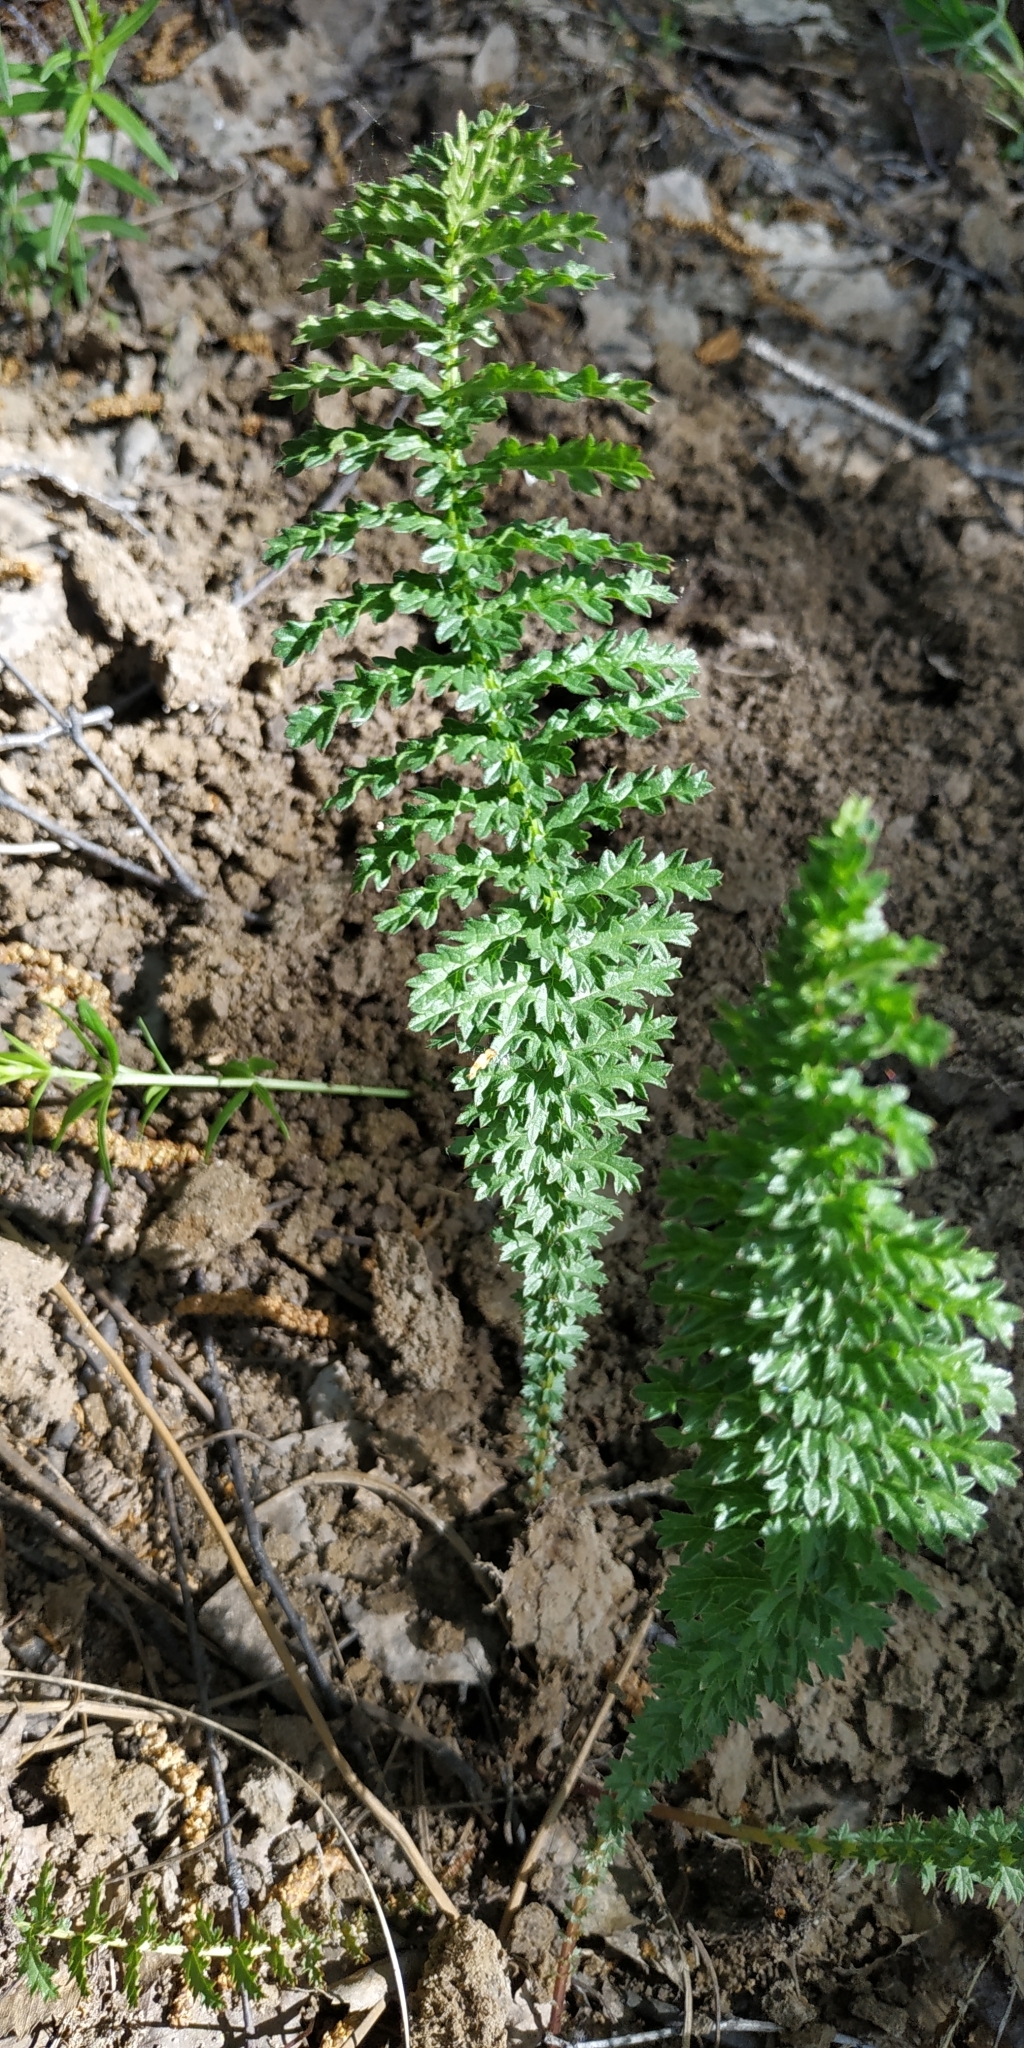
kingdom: Plantae
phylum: Tracheophyta
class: Magnoliopsida
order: Rosales
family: Rosaceae
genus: Filipendula
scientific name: Filipendula vulgaris
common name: Dropwort
